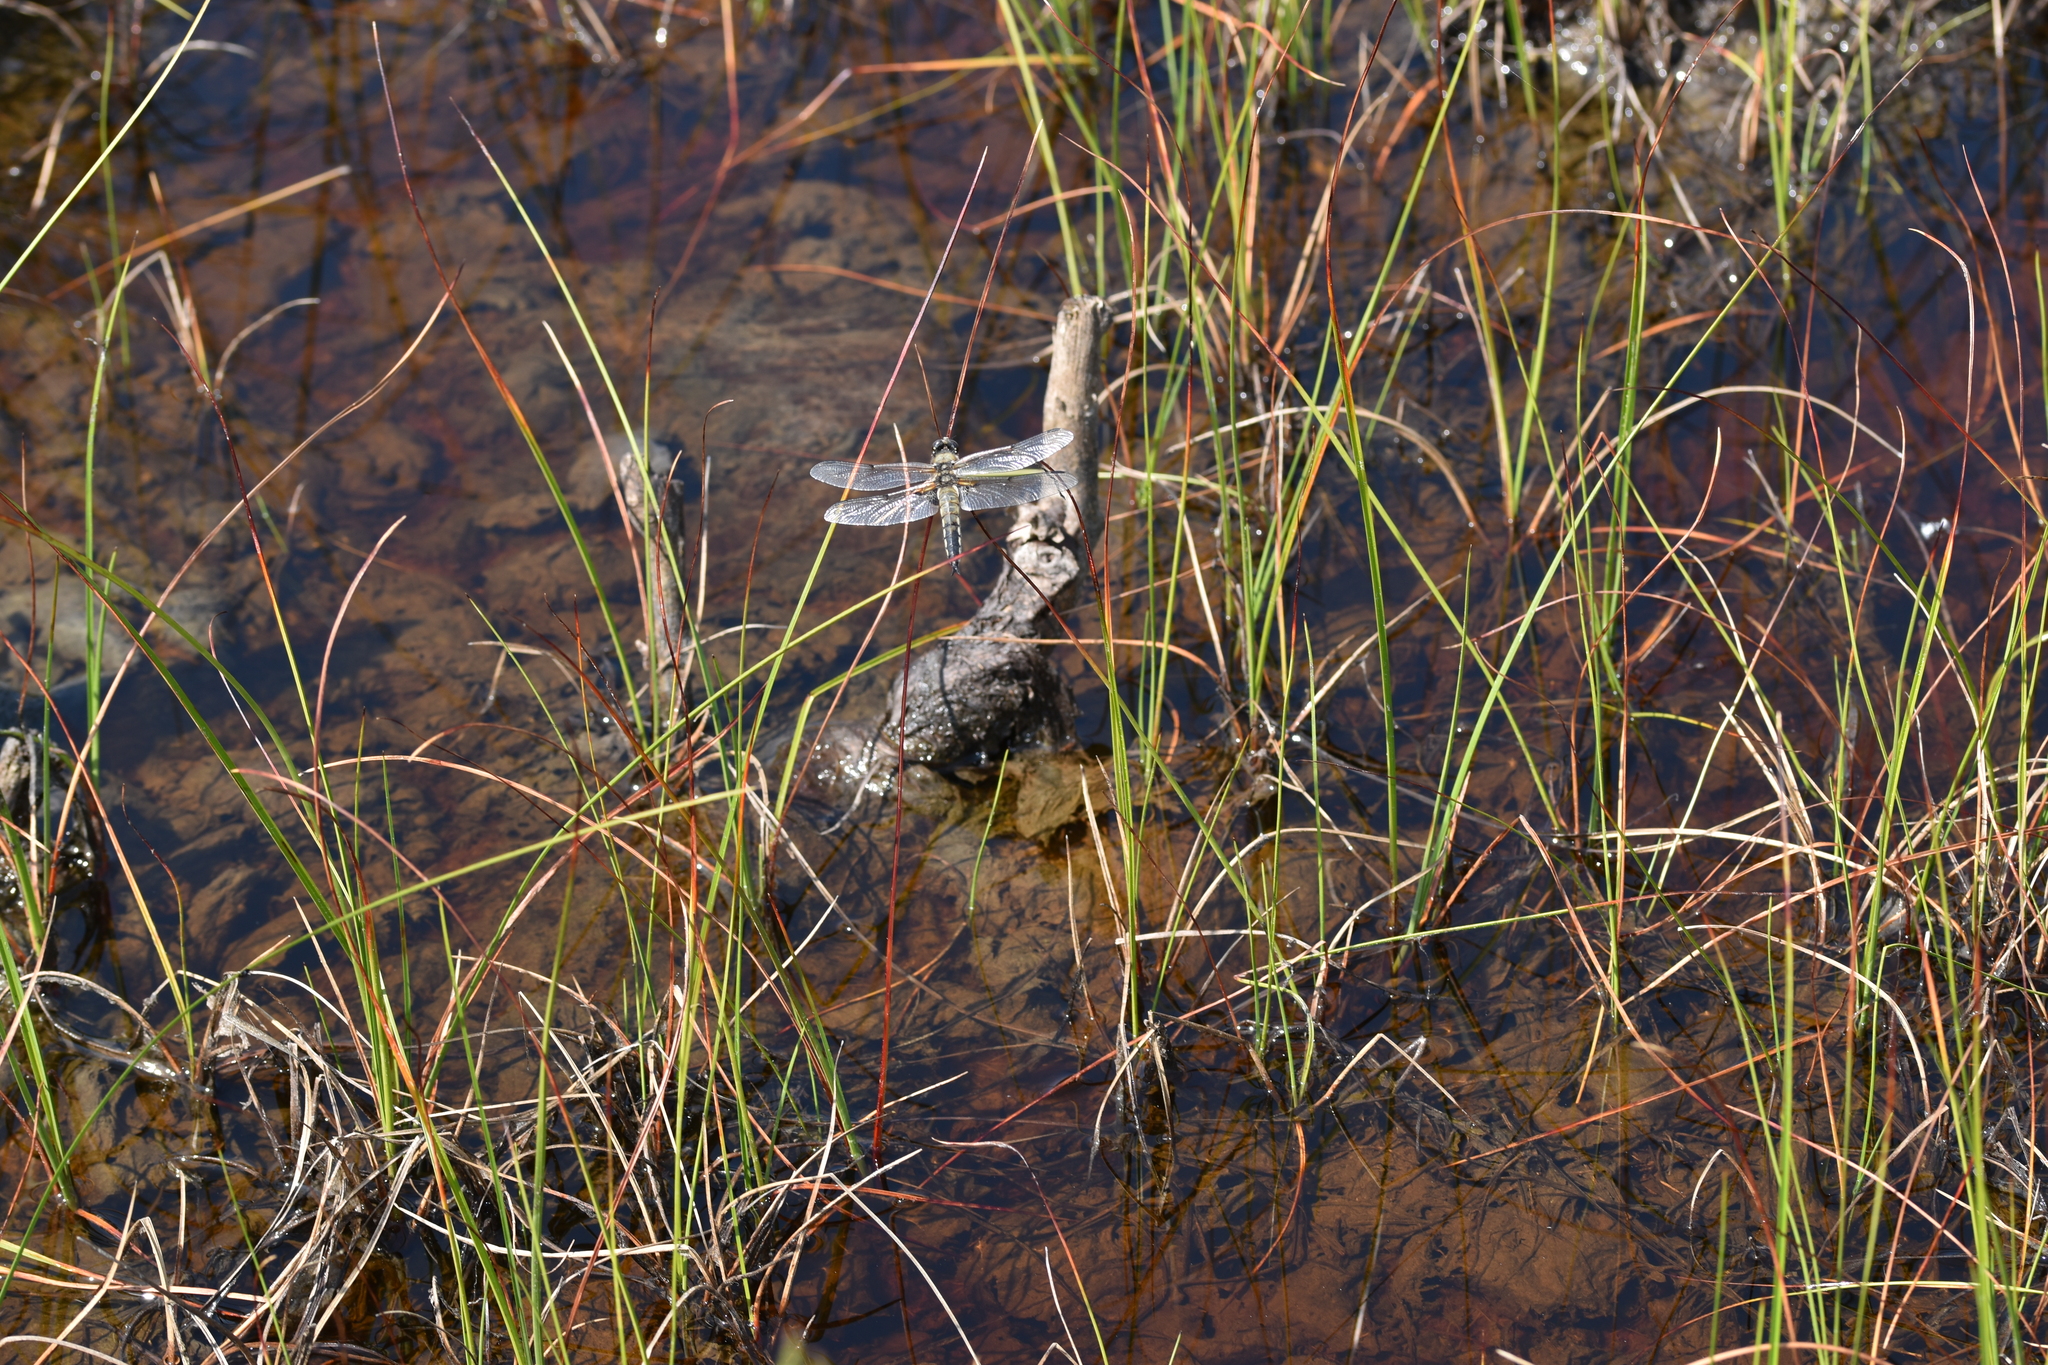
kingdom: Animalia
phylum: Arthropoda
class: Insecta
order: Odonata
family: Libellulidae
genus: Libellula
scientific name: Libellula quadrimaculata
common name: Four-spotted chaser
